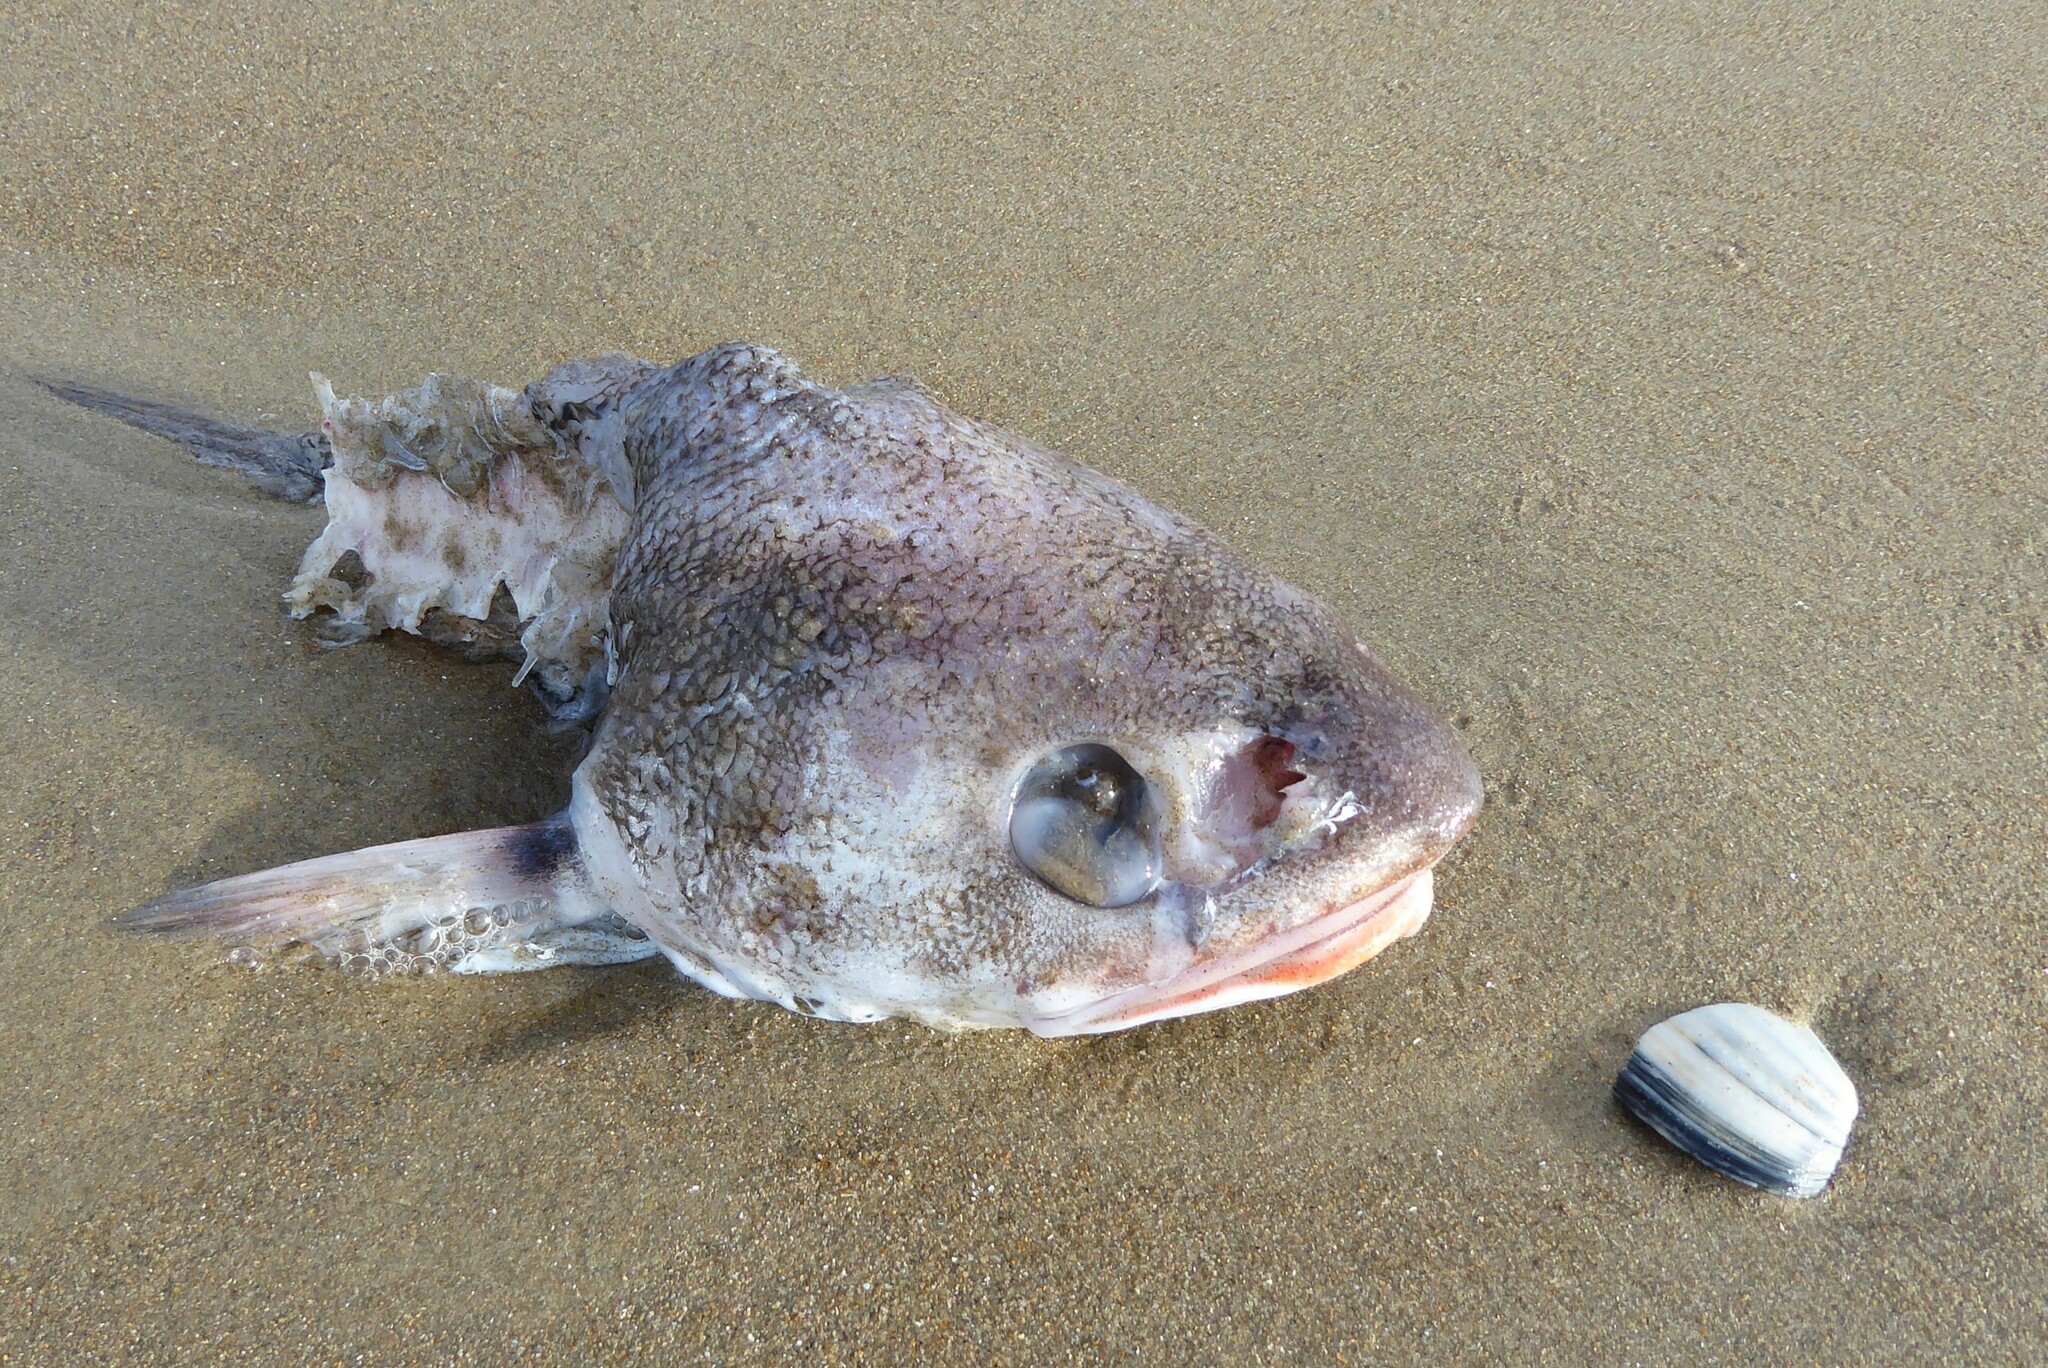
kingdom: Animalia
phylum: Chordata
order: Gadiformes
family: Moridae
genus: Pseudophycis
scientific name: Pseudophycis bachus
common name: Red cod
